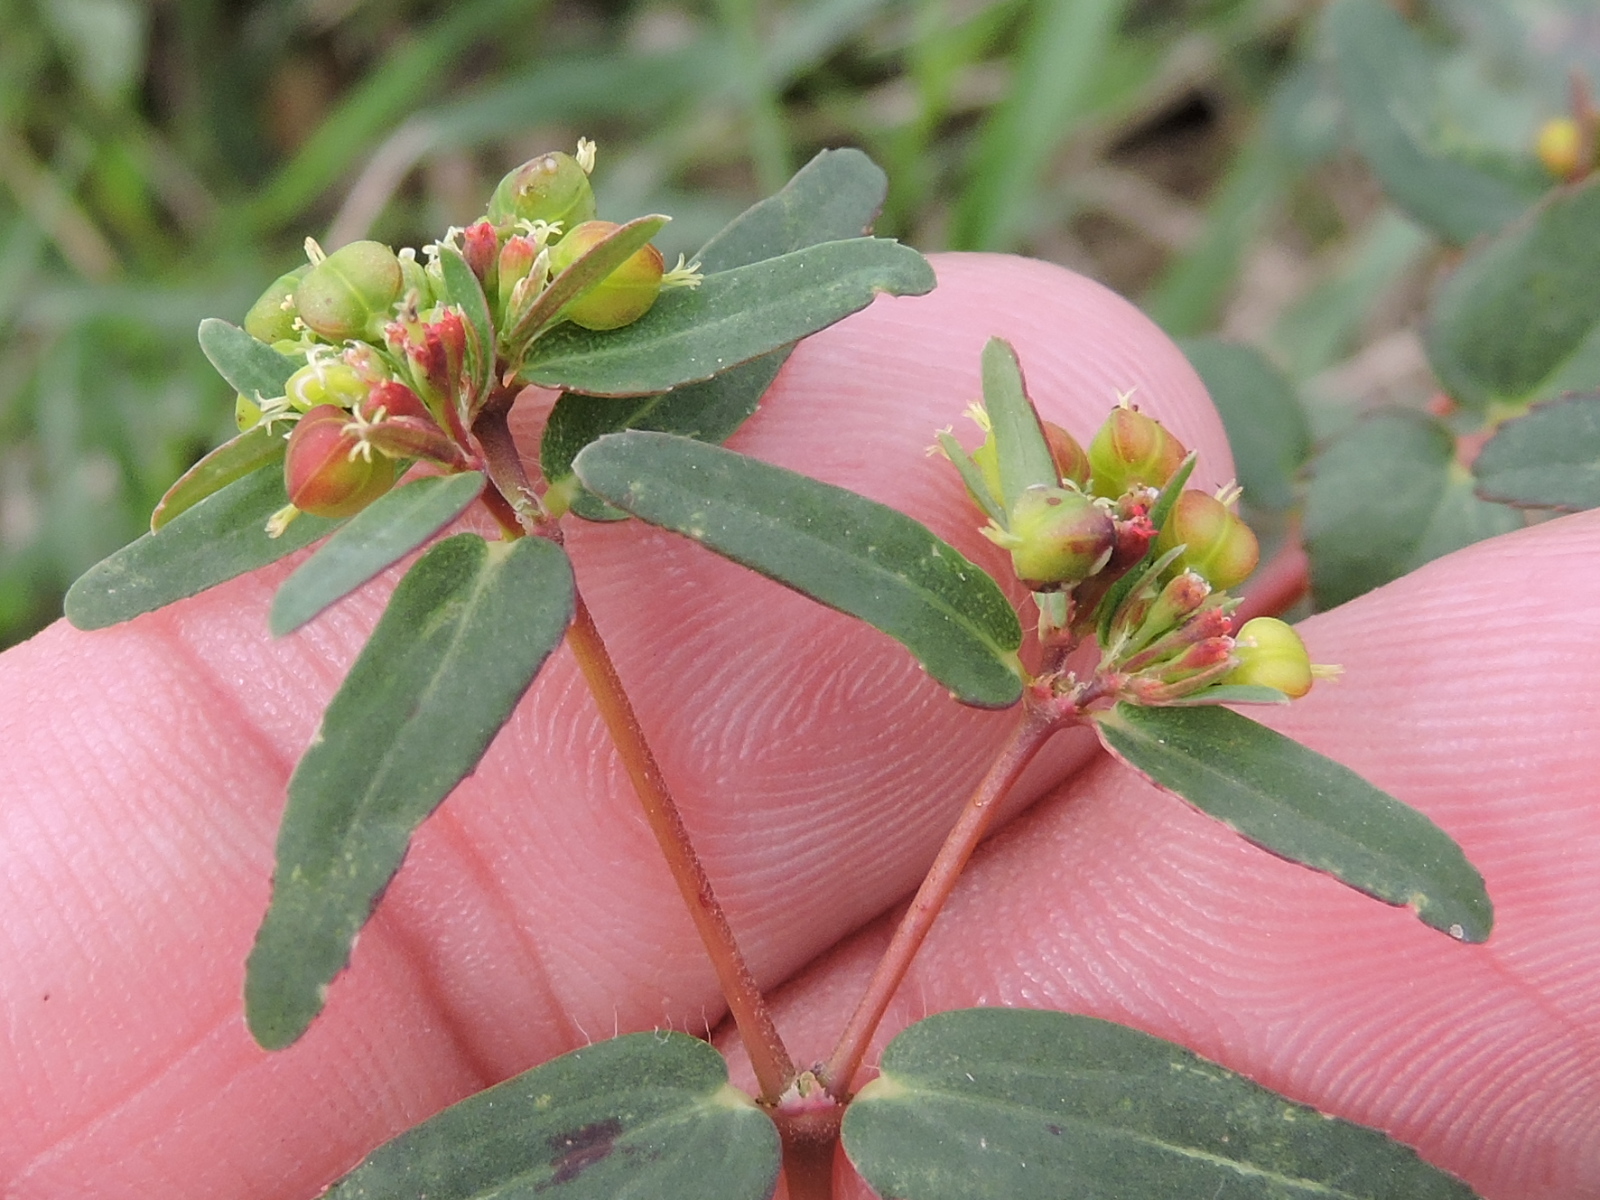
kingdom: Plantae
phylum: Tracheophyta
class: Magnoliopsida
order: Malpighiales
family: Euphorbiaceae
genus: Euphorbia
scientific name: Euphorbia nutans
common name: Eyebane
